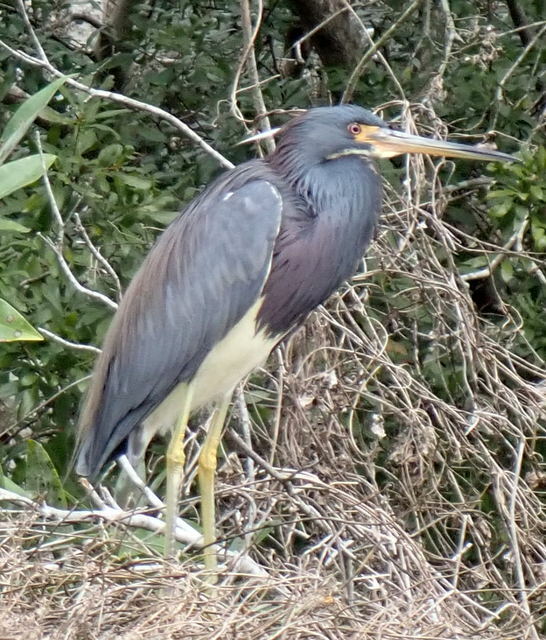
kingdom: Animalia
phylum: Chordata
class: Aves
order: Pelecaniformes
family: Ardeidae
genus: Egretta
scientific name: Egretta tricolor
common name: Tricolored heron
